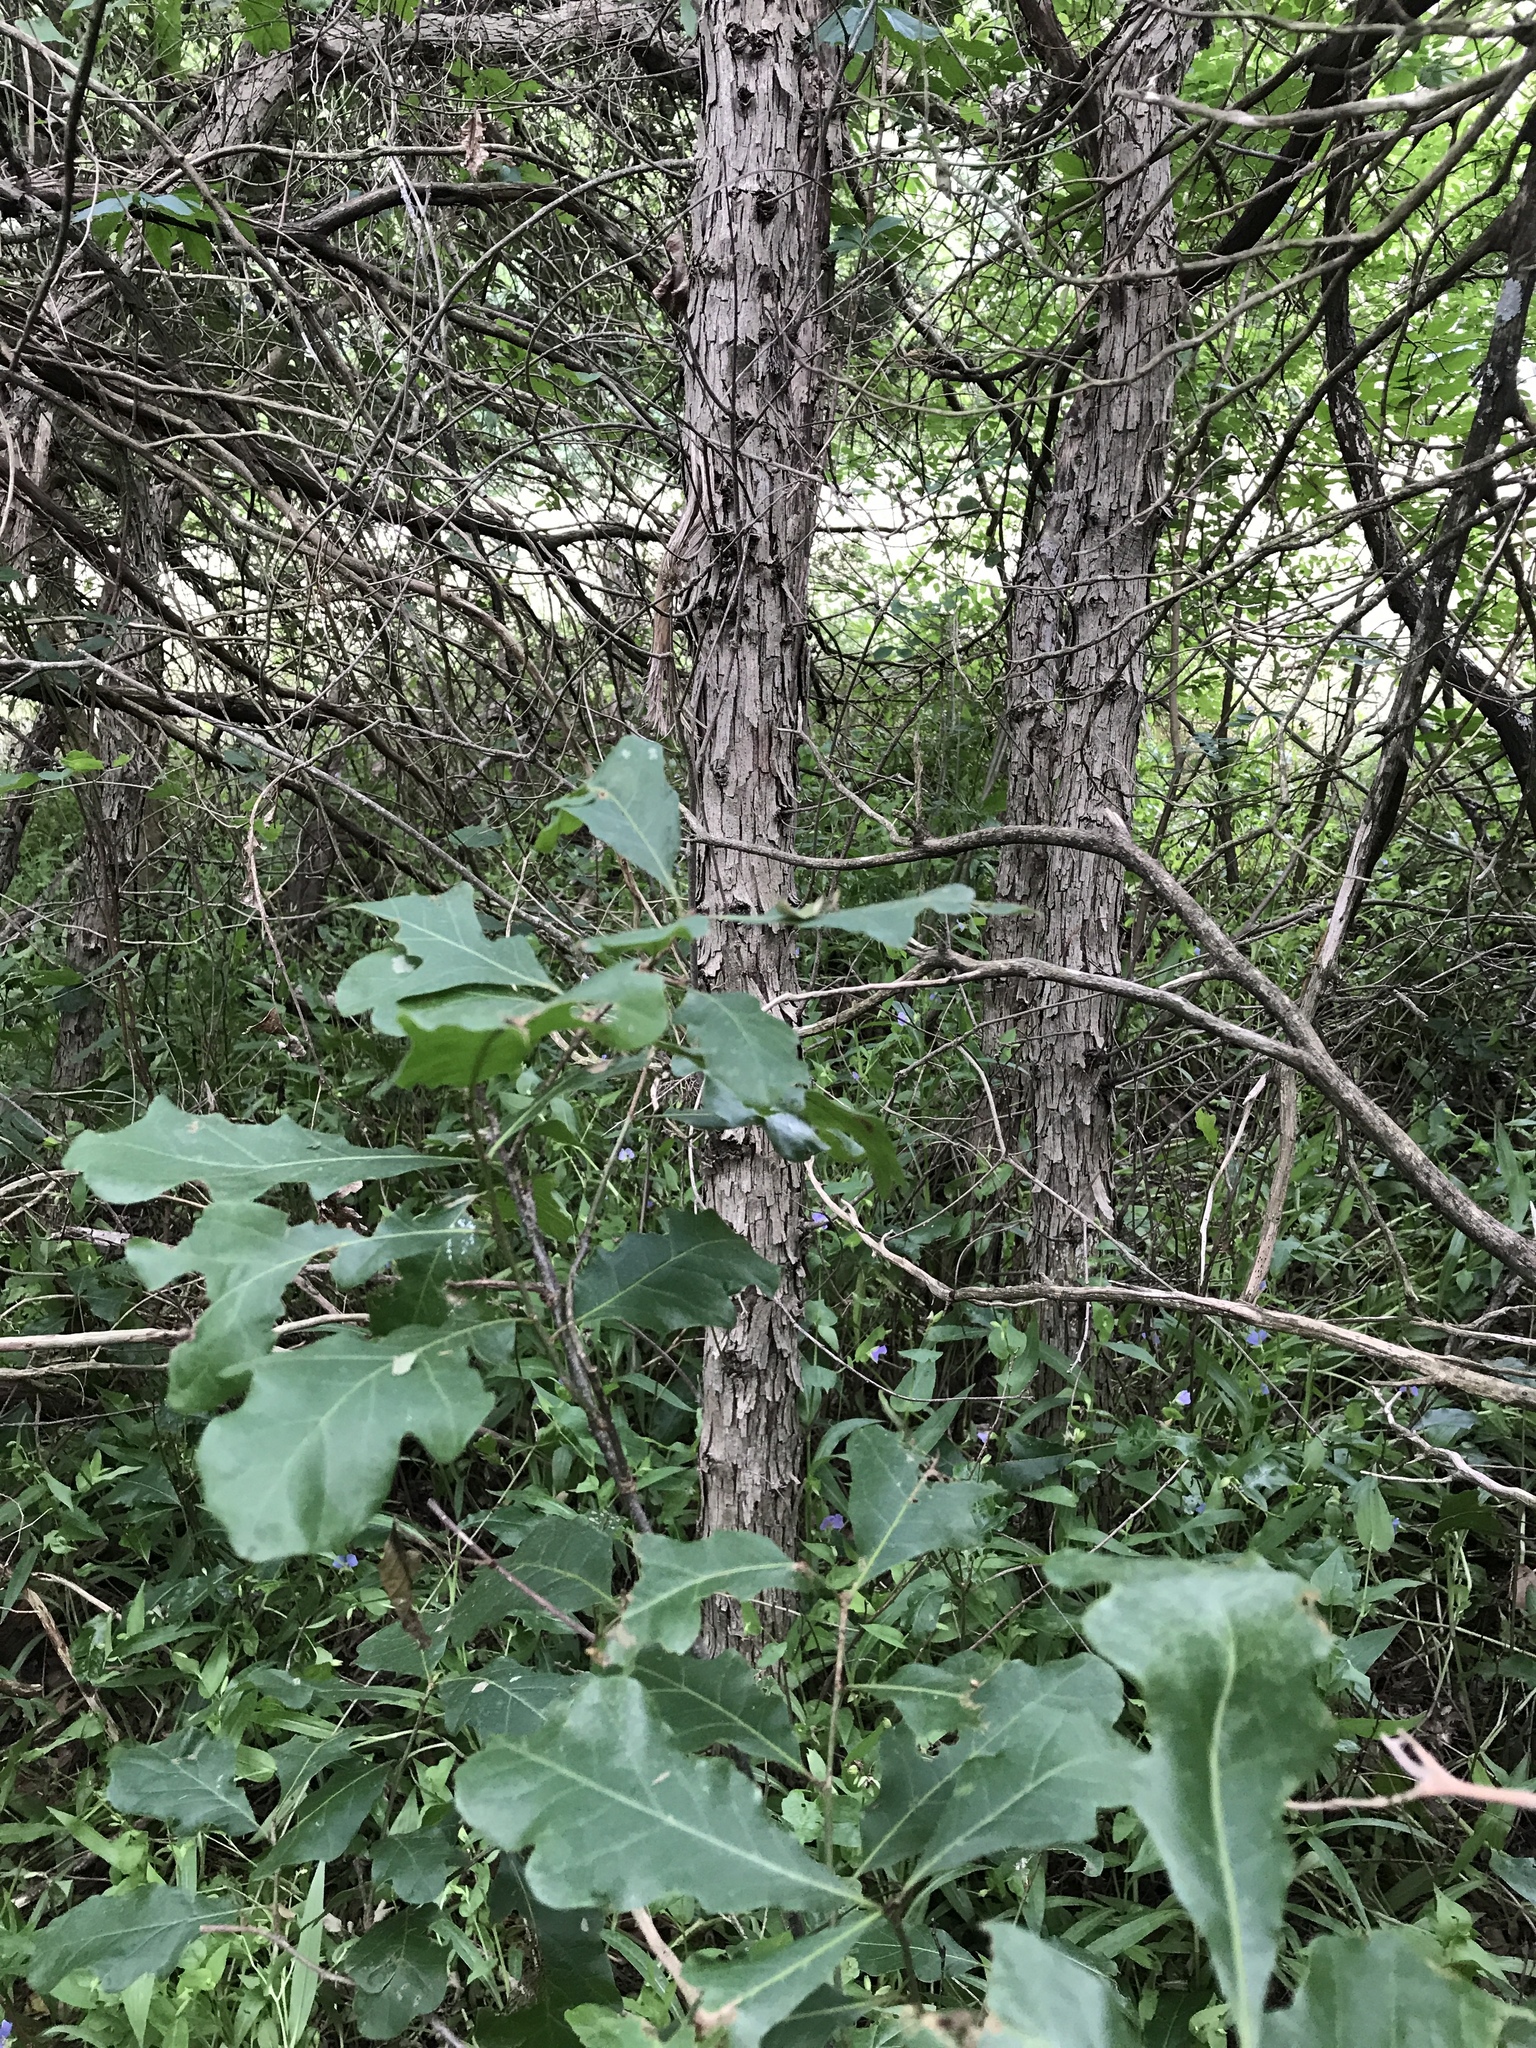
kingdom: Plantae
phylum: Tracheophyta
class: Magnoliopsida
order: Fagales
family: Fagaceae
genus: Quercus
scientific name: Quercus sinuata
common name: Durand oak
